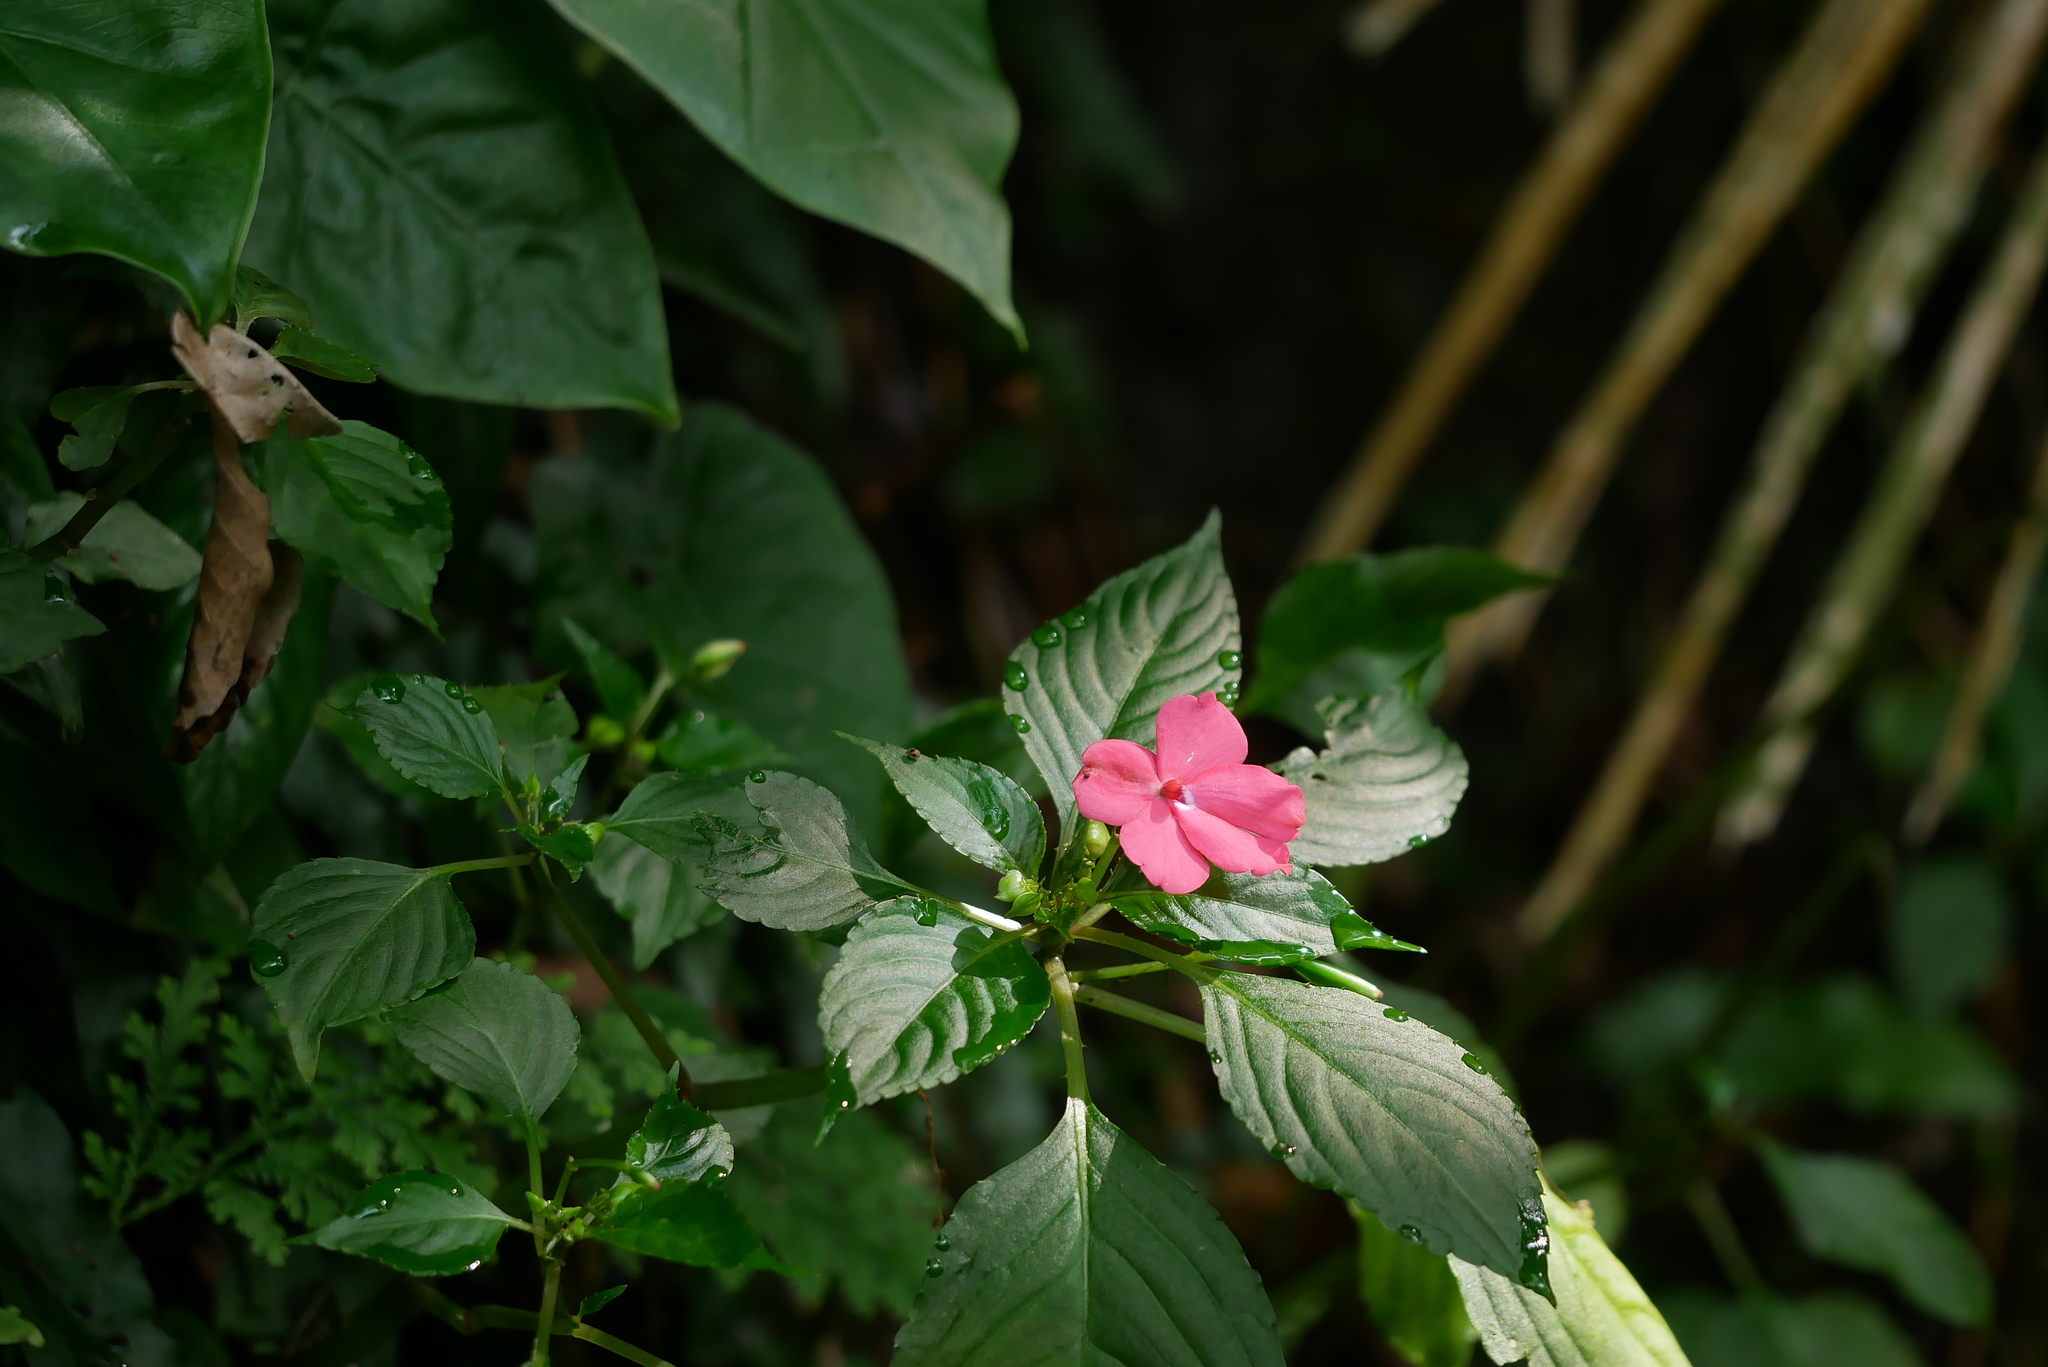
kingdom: Plantae
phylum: Tracheophyta
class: Magnoliopsida
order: Ericales
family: Balsaminaceae
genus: Impatiens
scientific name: Impatiens walleriana
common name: Buzzy lizzy
